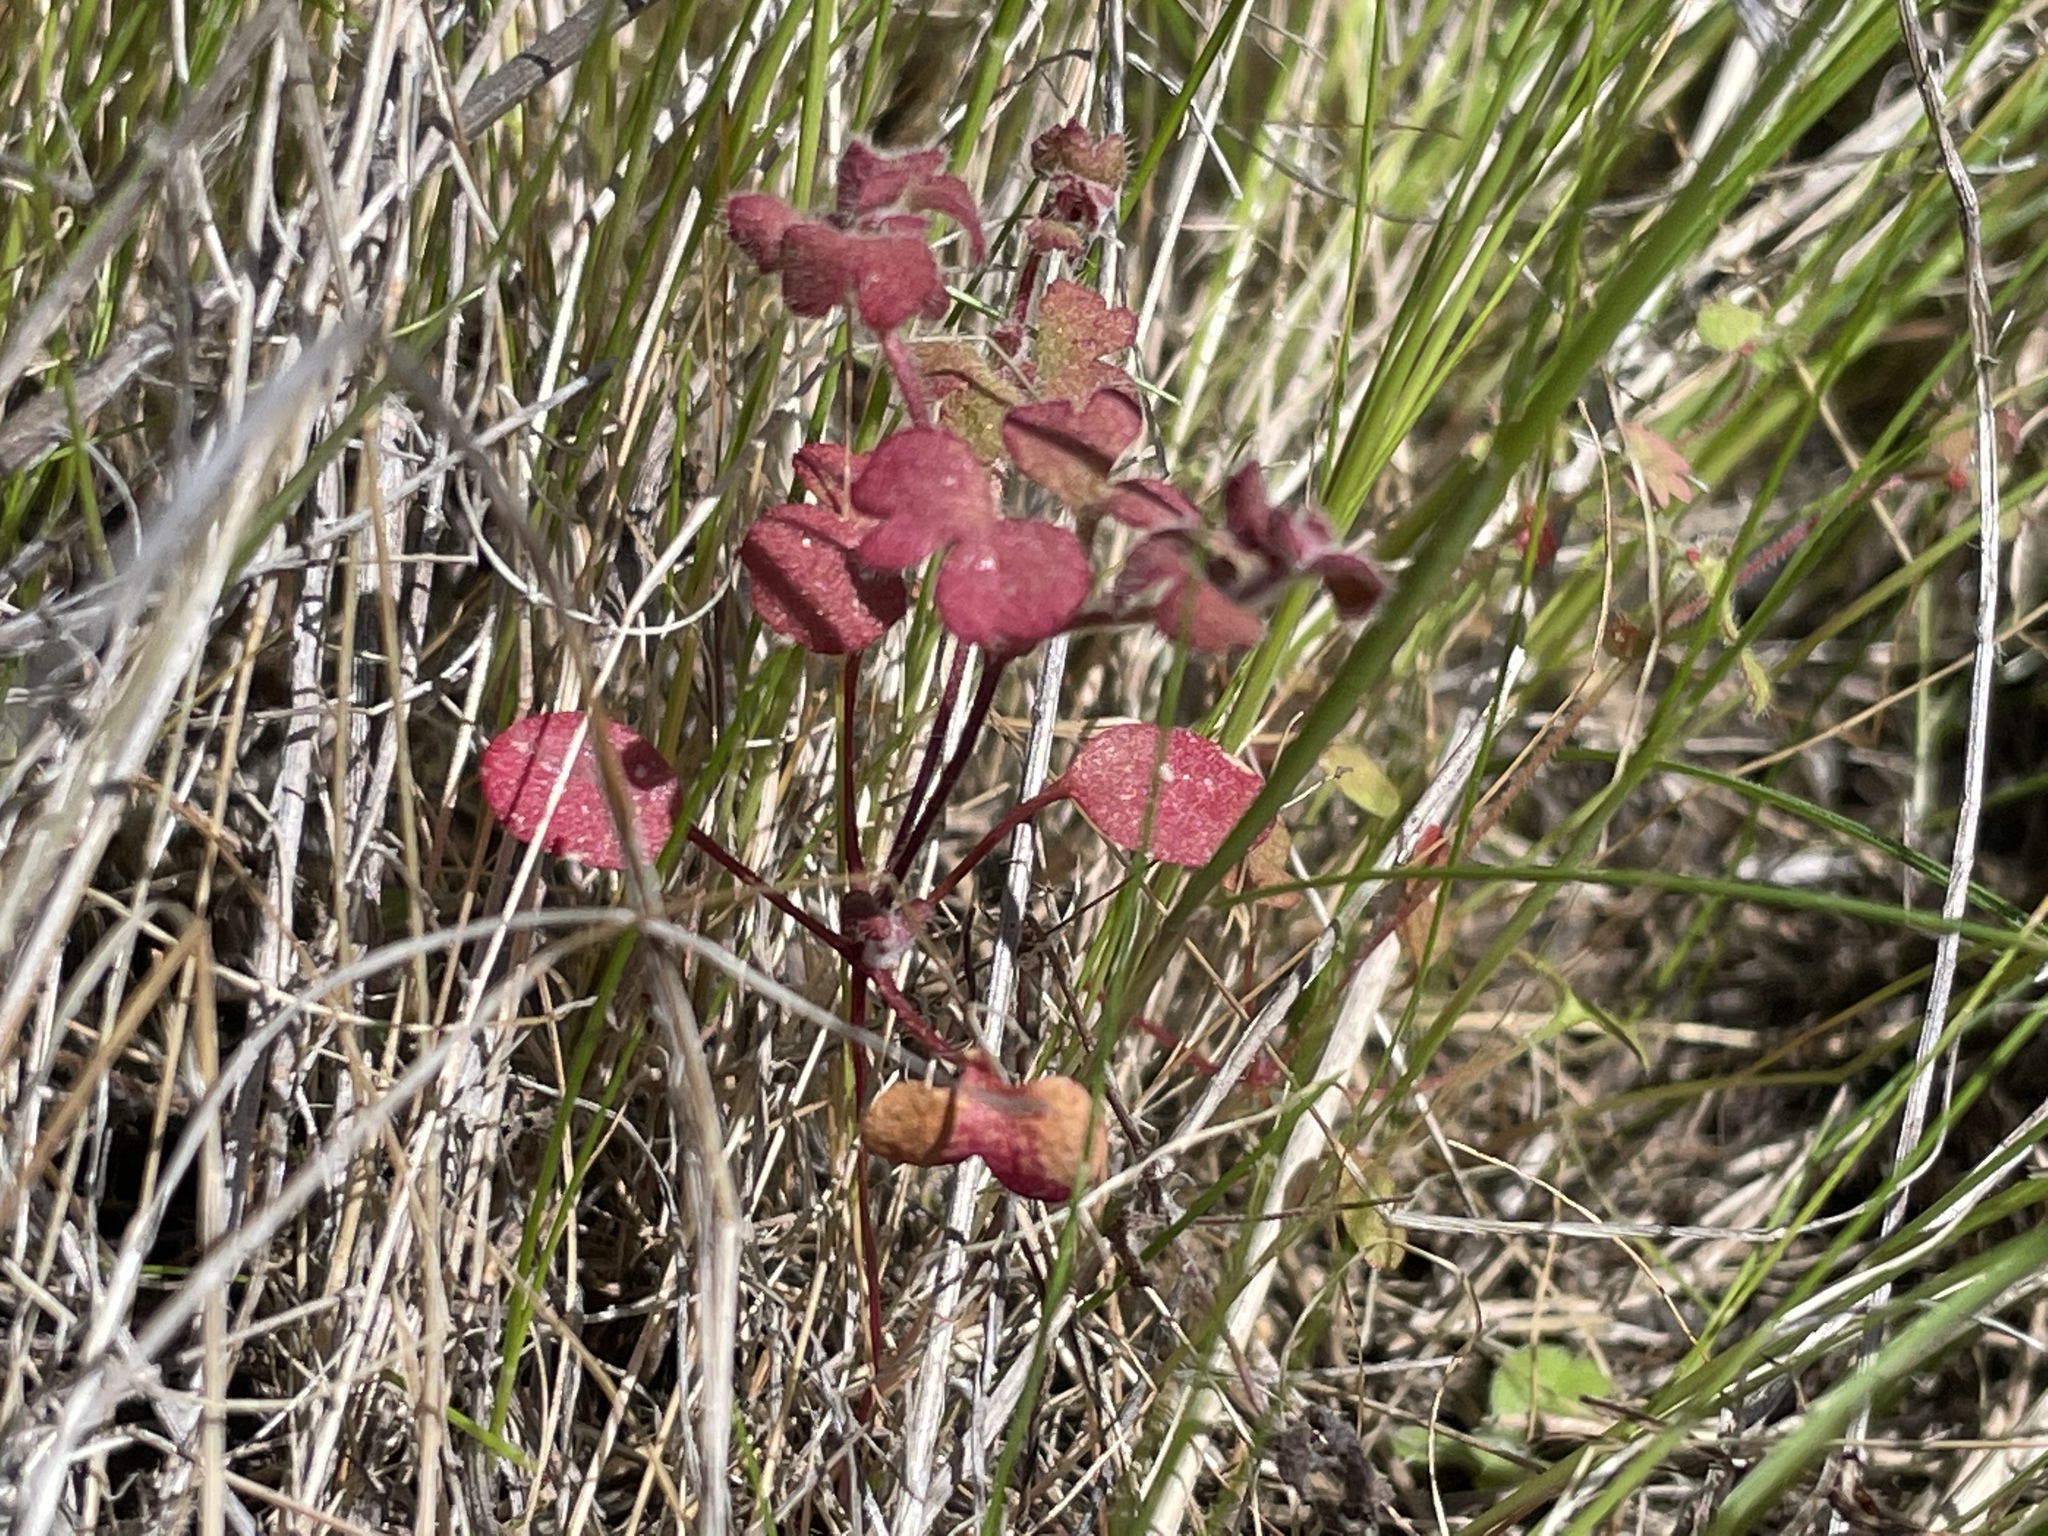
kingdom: Plantae
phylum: Tracheophyta
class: Magnoliopsida
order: Caryophyllales
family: Polygonaceae
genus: Pterostegia
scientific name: Pterostegia drymarioides
